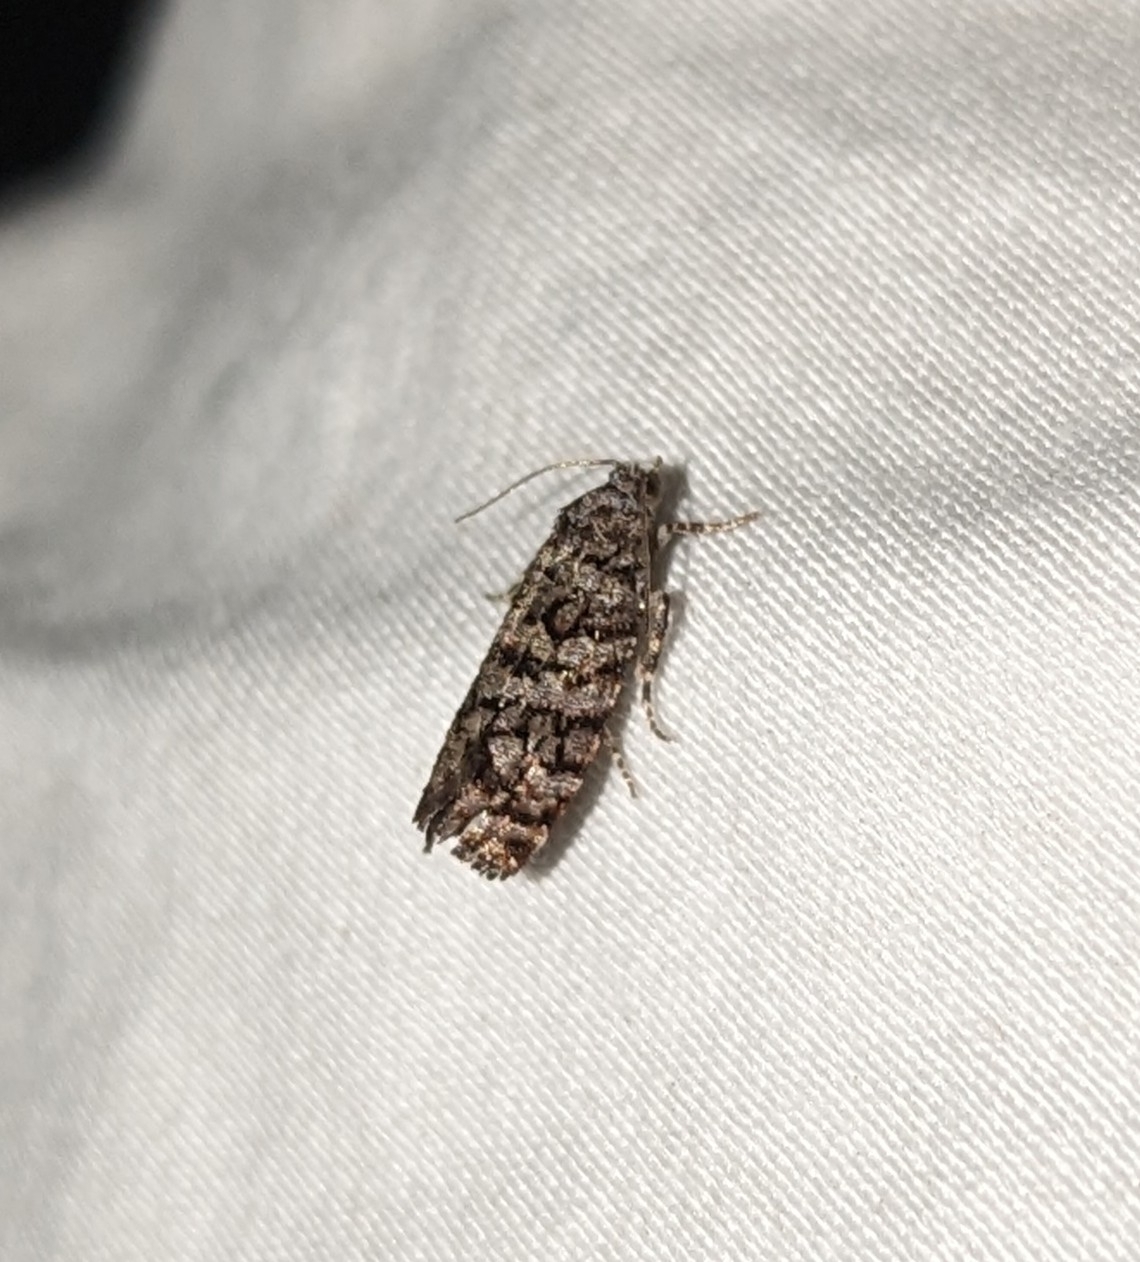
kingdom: Animalia
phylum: Arthropoda
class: Insecta
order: Lepidoptera
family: Tortricidae
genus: Barbara
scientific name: Barbara mappana
